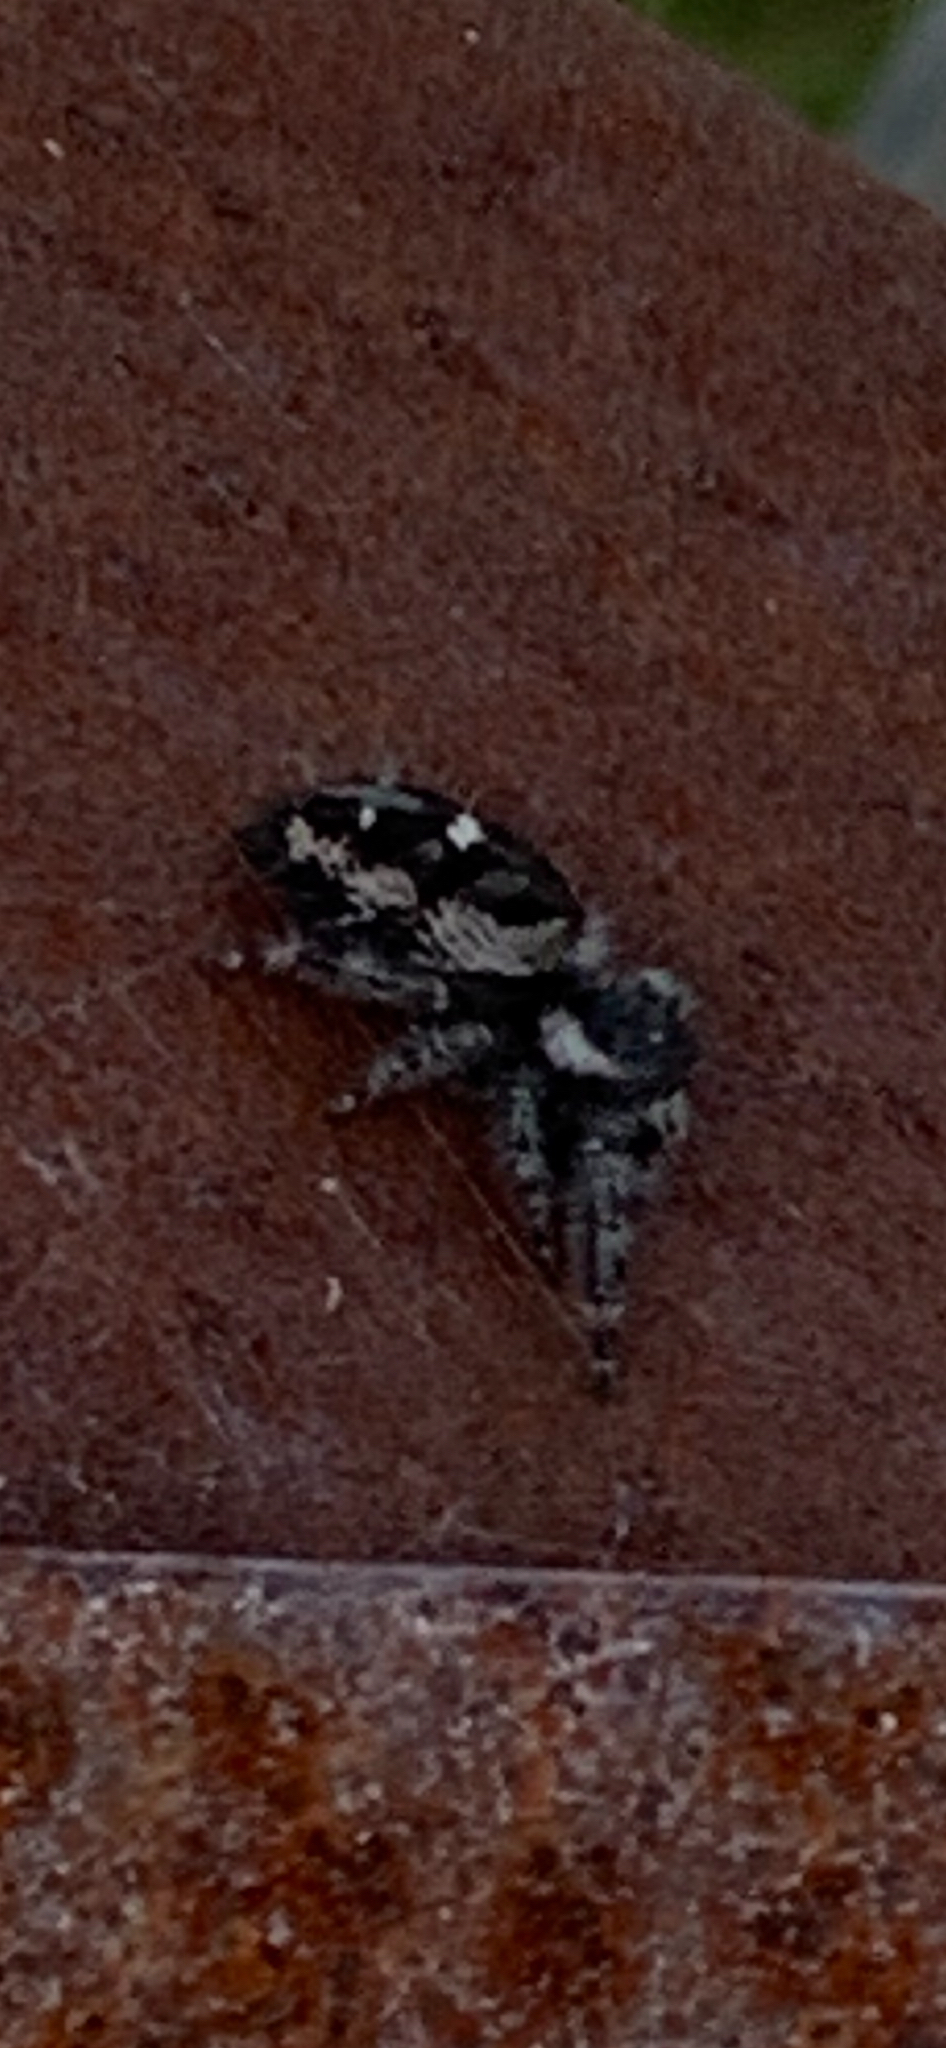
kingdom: Animalia
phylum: Arthropoda
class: Arachnida
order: Araneae
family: Salticidae
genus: Phidippus
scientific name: Phidippus audax
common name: Bold jumper
